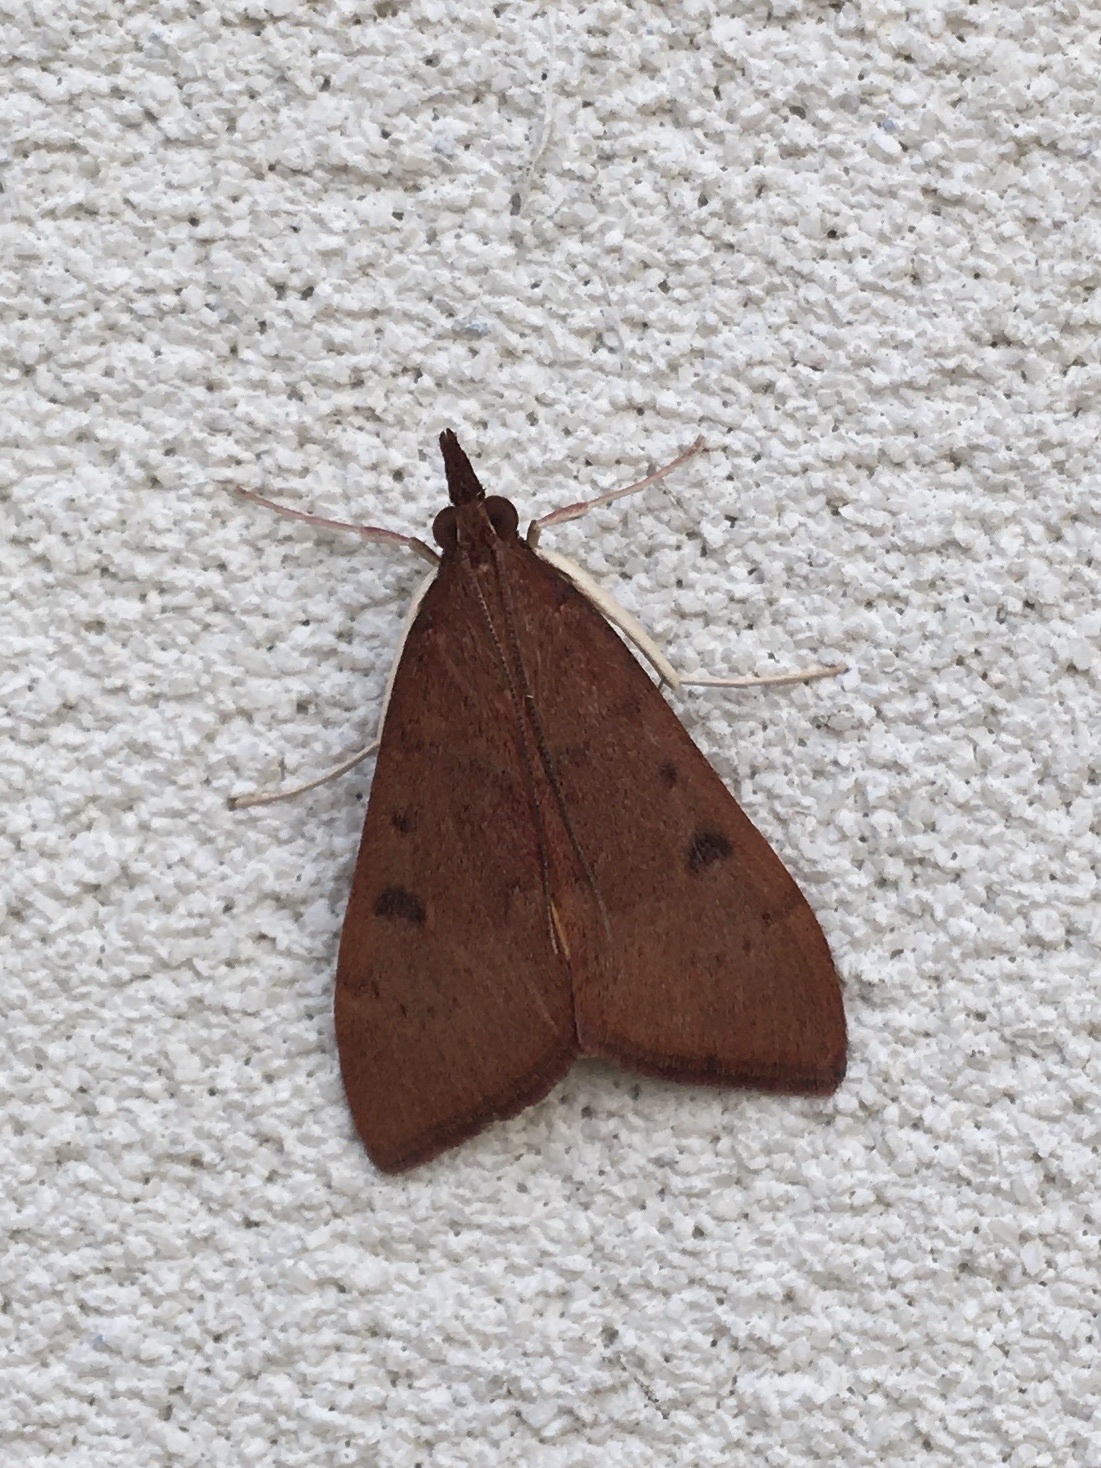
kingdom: Animalia
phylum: Arthropoda
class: Insecta
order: Lepidoptera
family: Crambidae
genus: Uresiphita
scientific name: Uresiphita reversalis
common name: Genista broom moth
